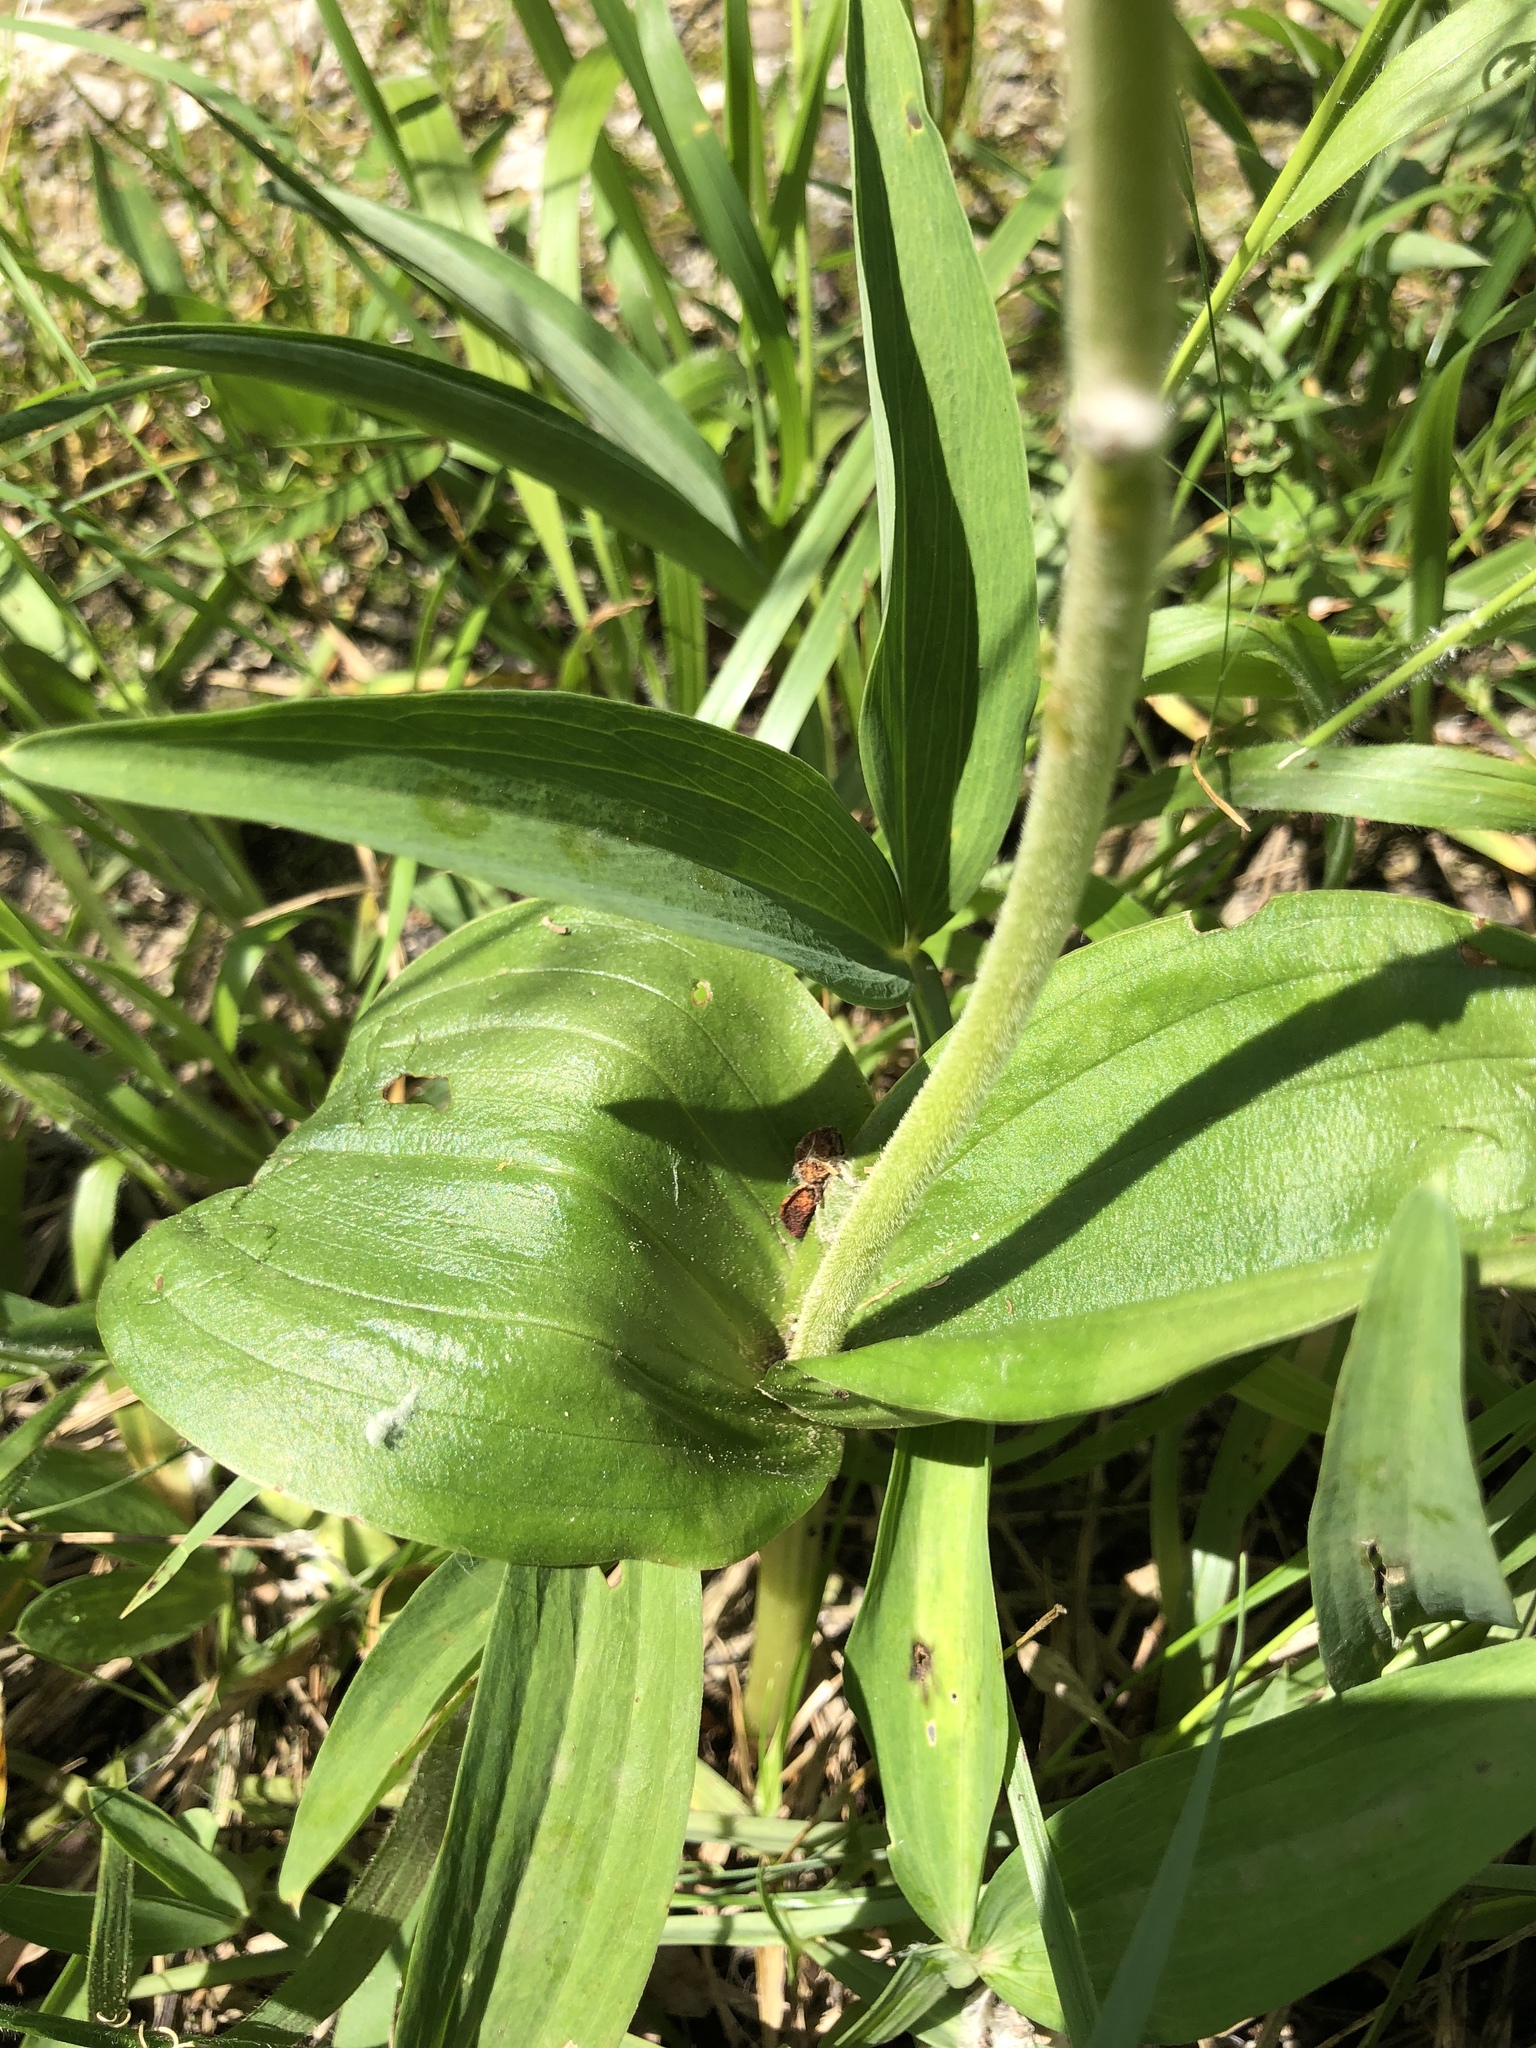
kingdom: Plantae
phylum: Tracheophyta
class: Liliopsida
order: Asparagales
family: Orchidaceae
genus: Neottia
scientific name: Neottia ovata
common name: Common twayblade
